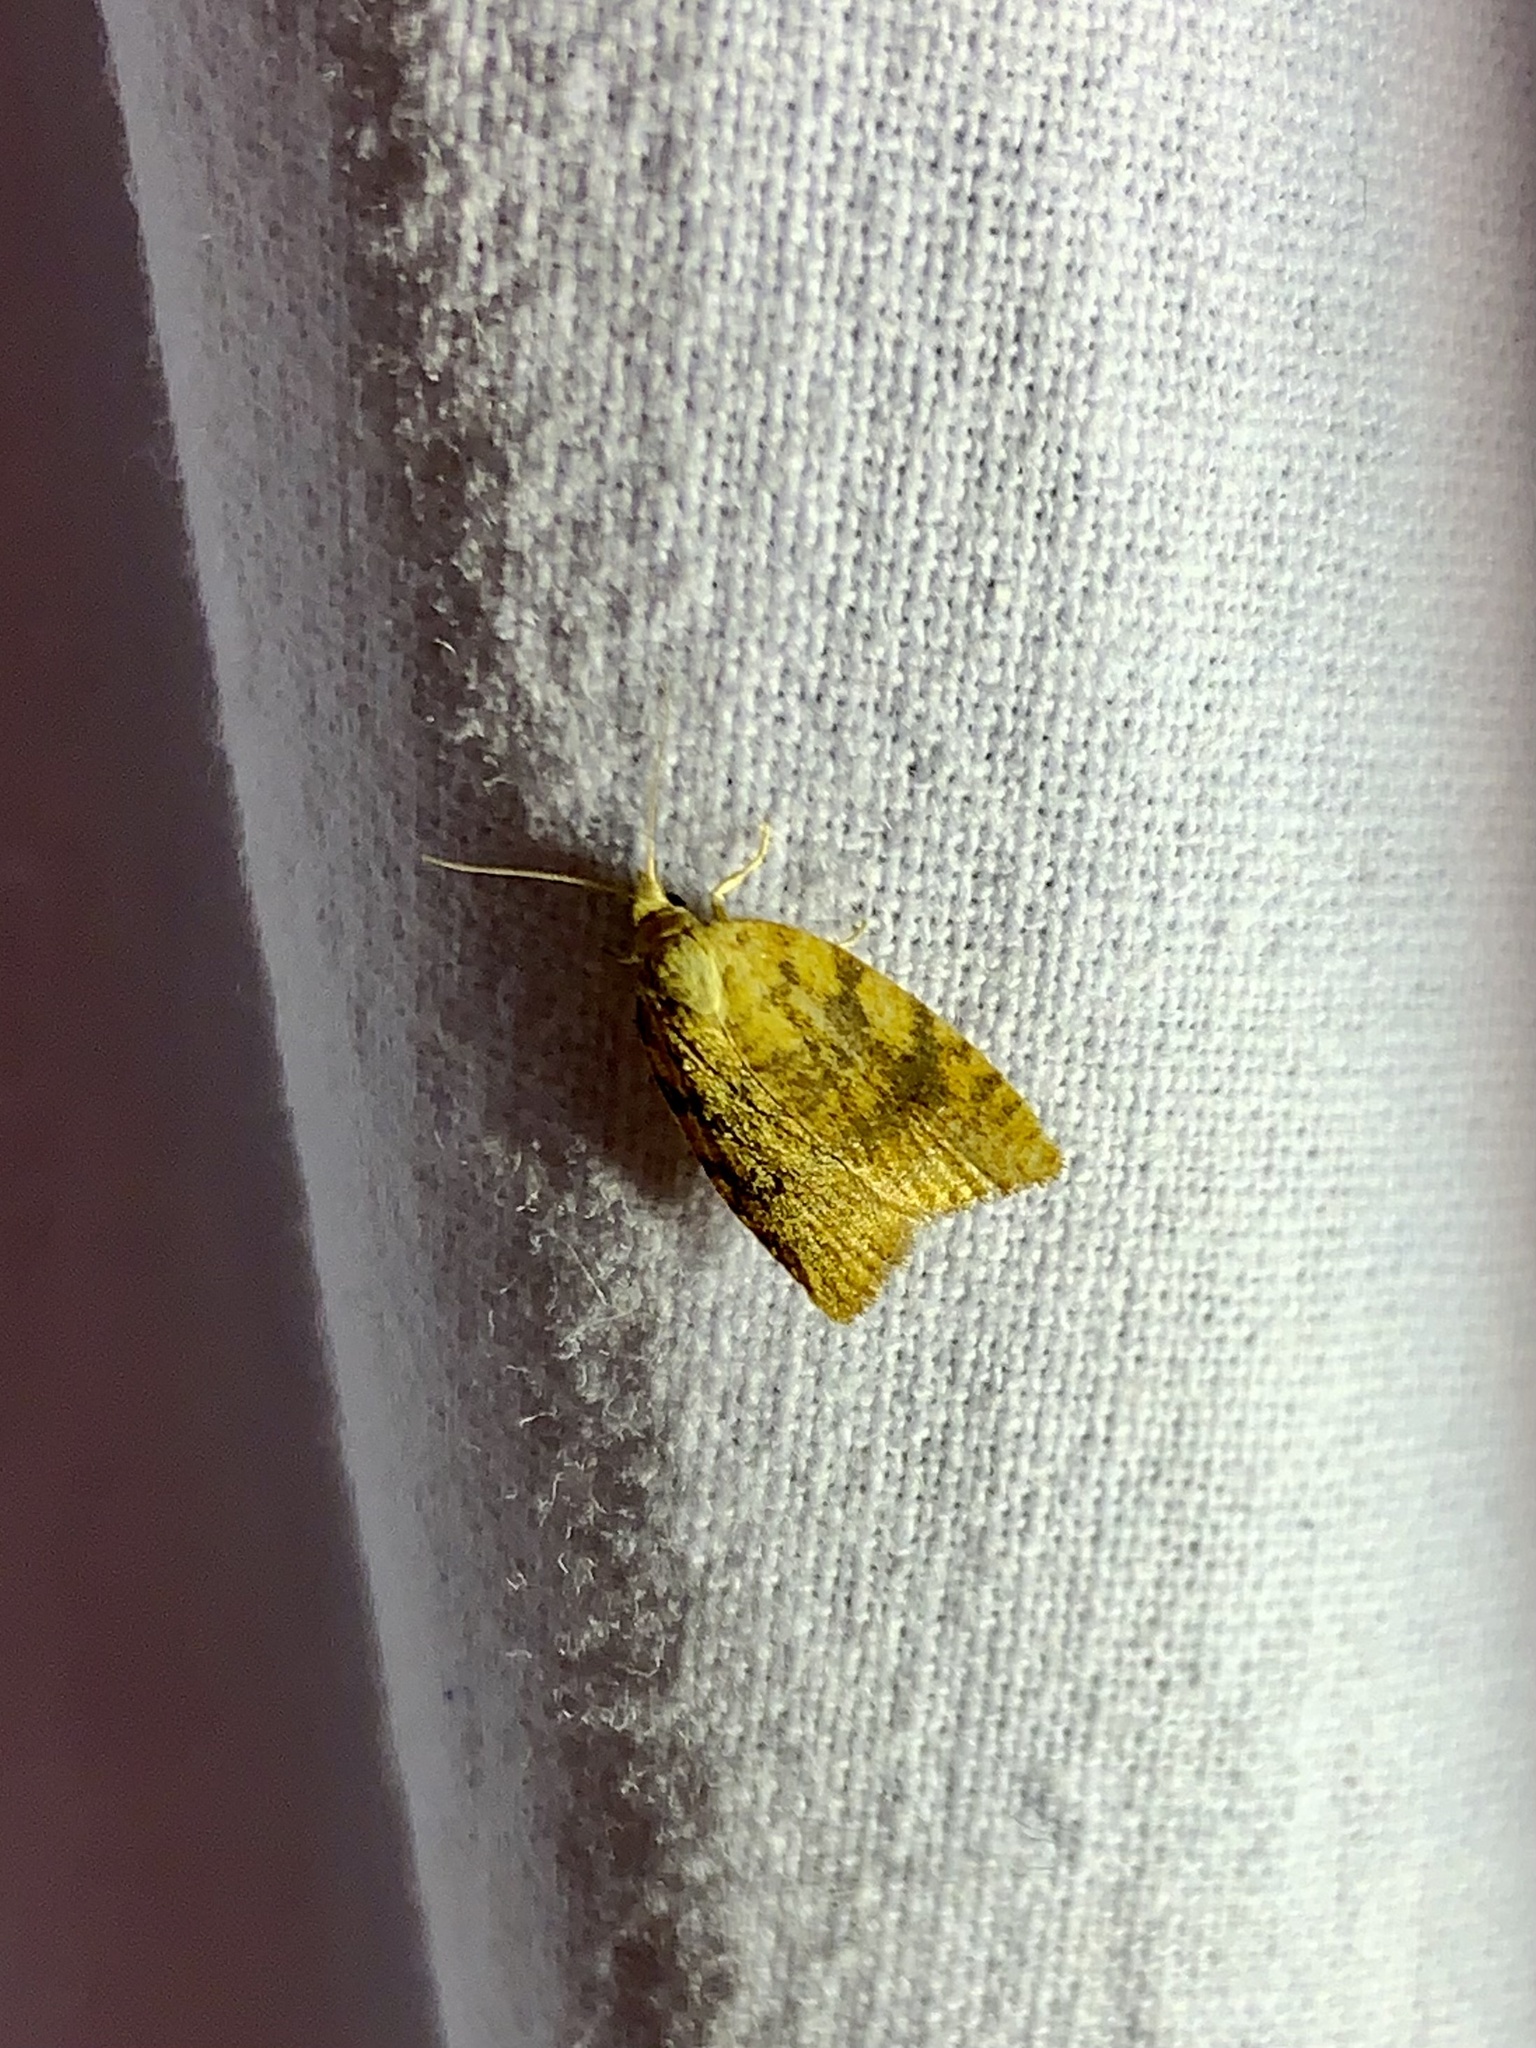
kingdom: Animalia
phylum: Arthropoda
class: Insecta
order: Lepidoptera
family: Tortricidae
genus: Aleimma
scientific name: Aleimma loeflingiana
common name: Yellow oak button
